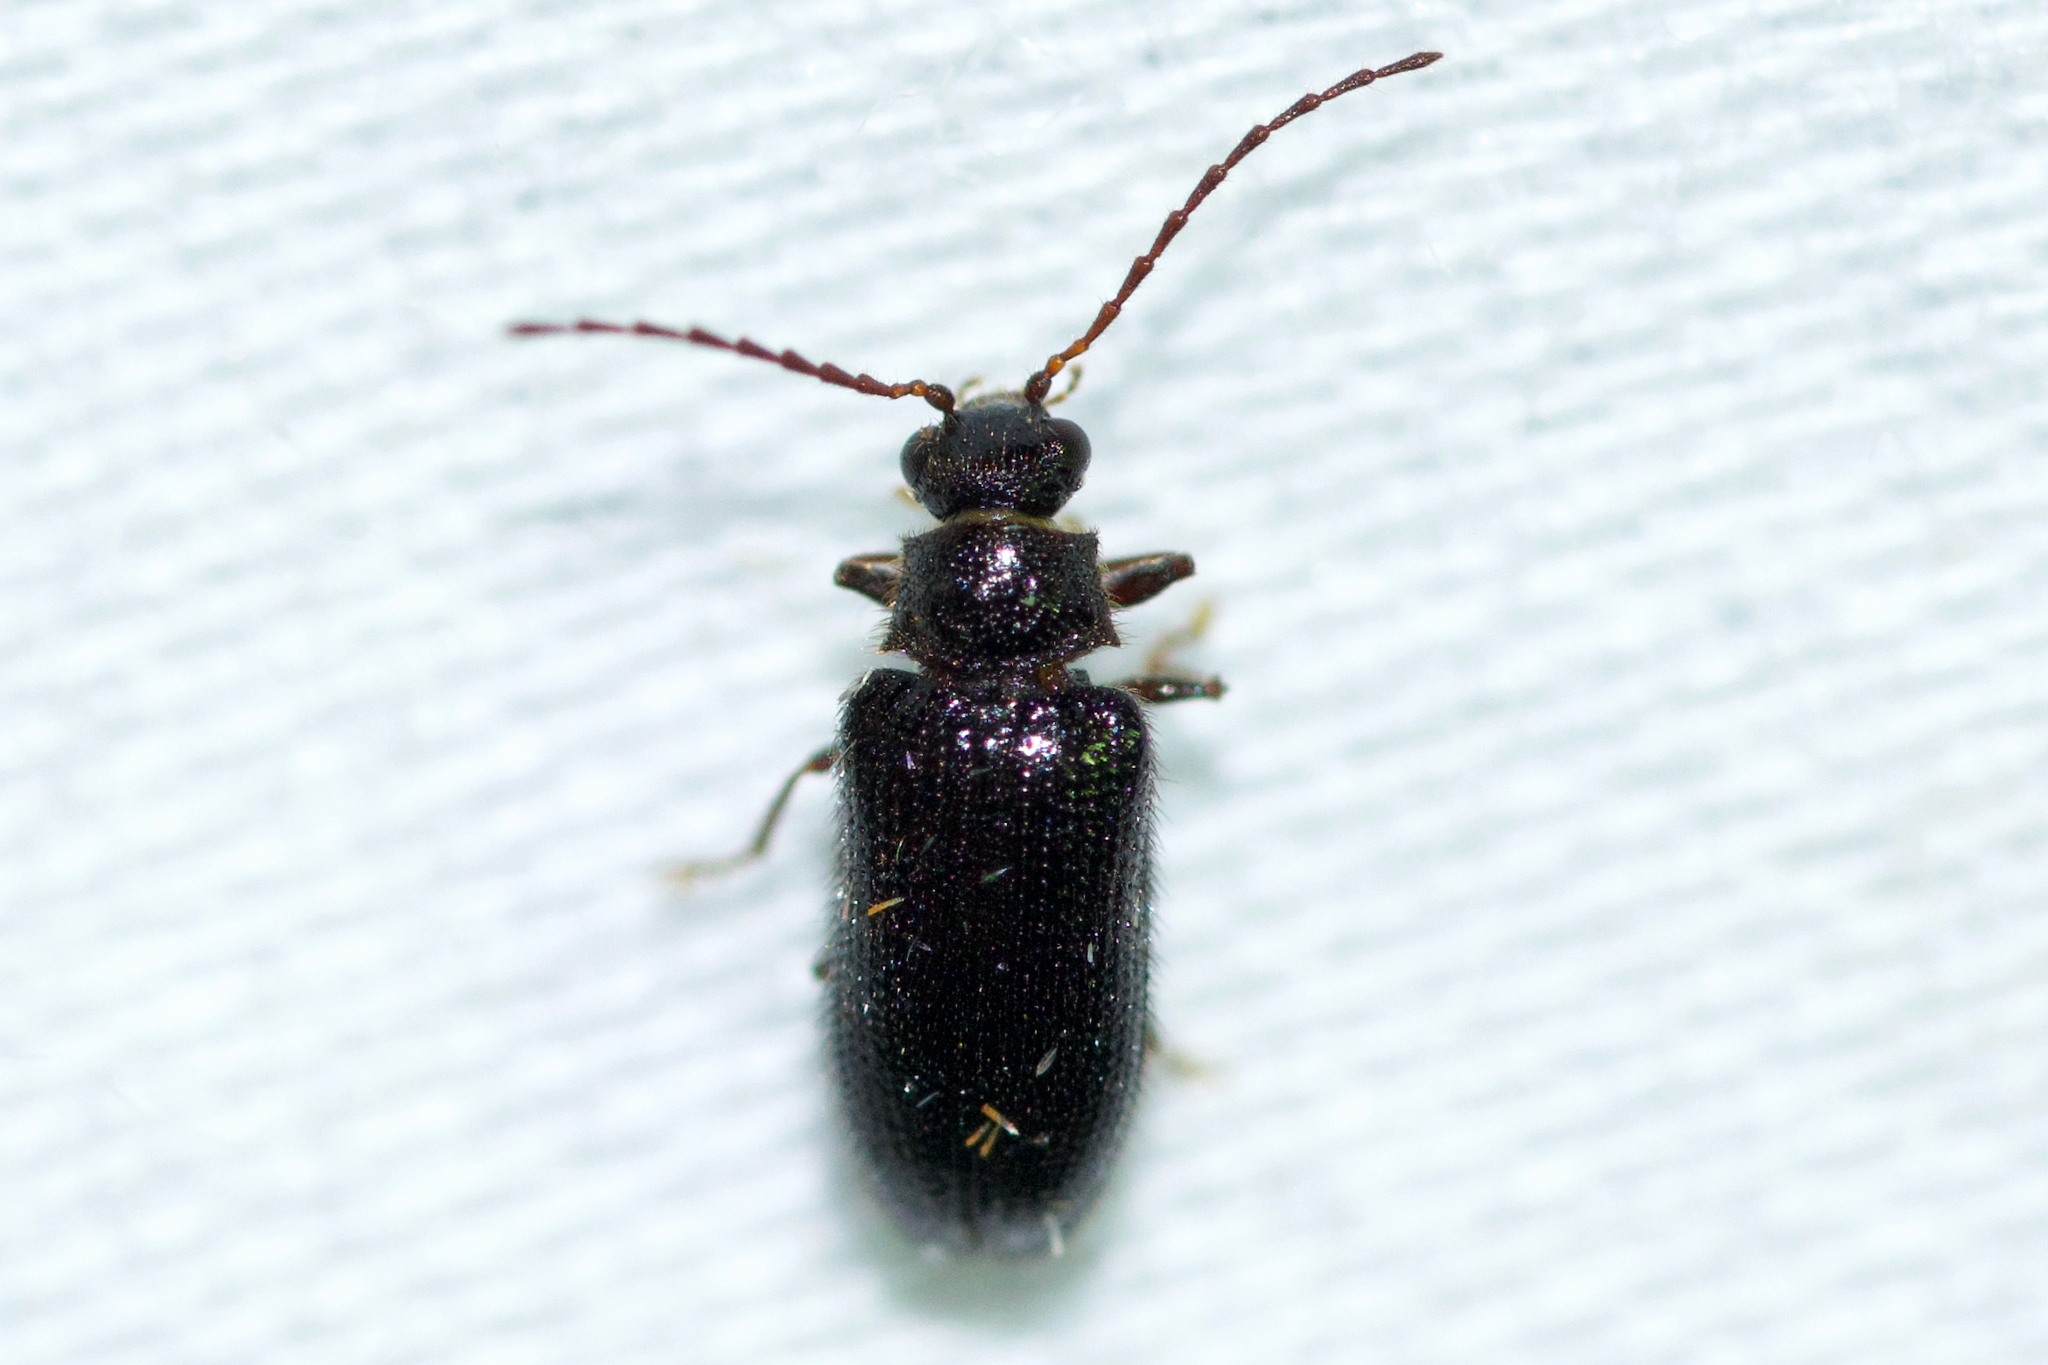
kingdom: Animalia
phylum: Arthropoda
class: Insecta
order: Coleoptera
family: Artematopodidae
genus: Eurypogon
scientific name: Eurypogon niger
